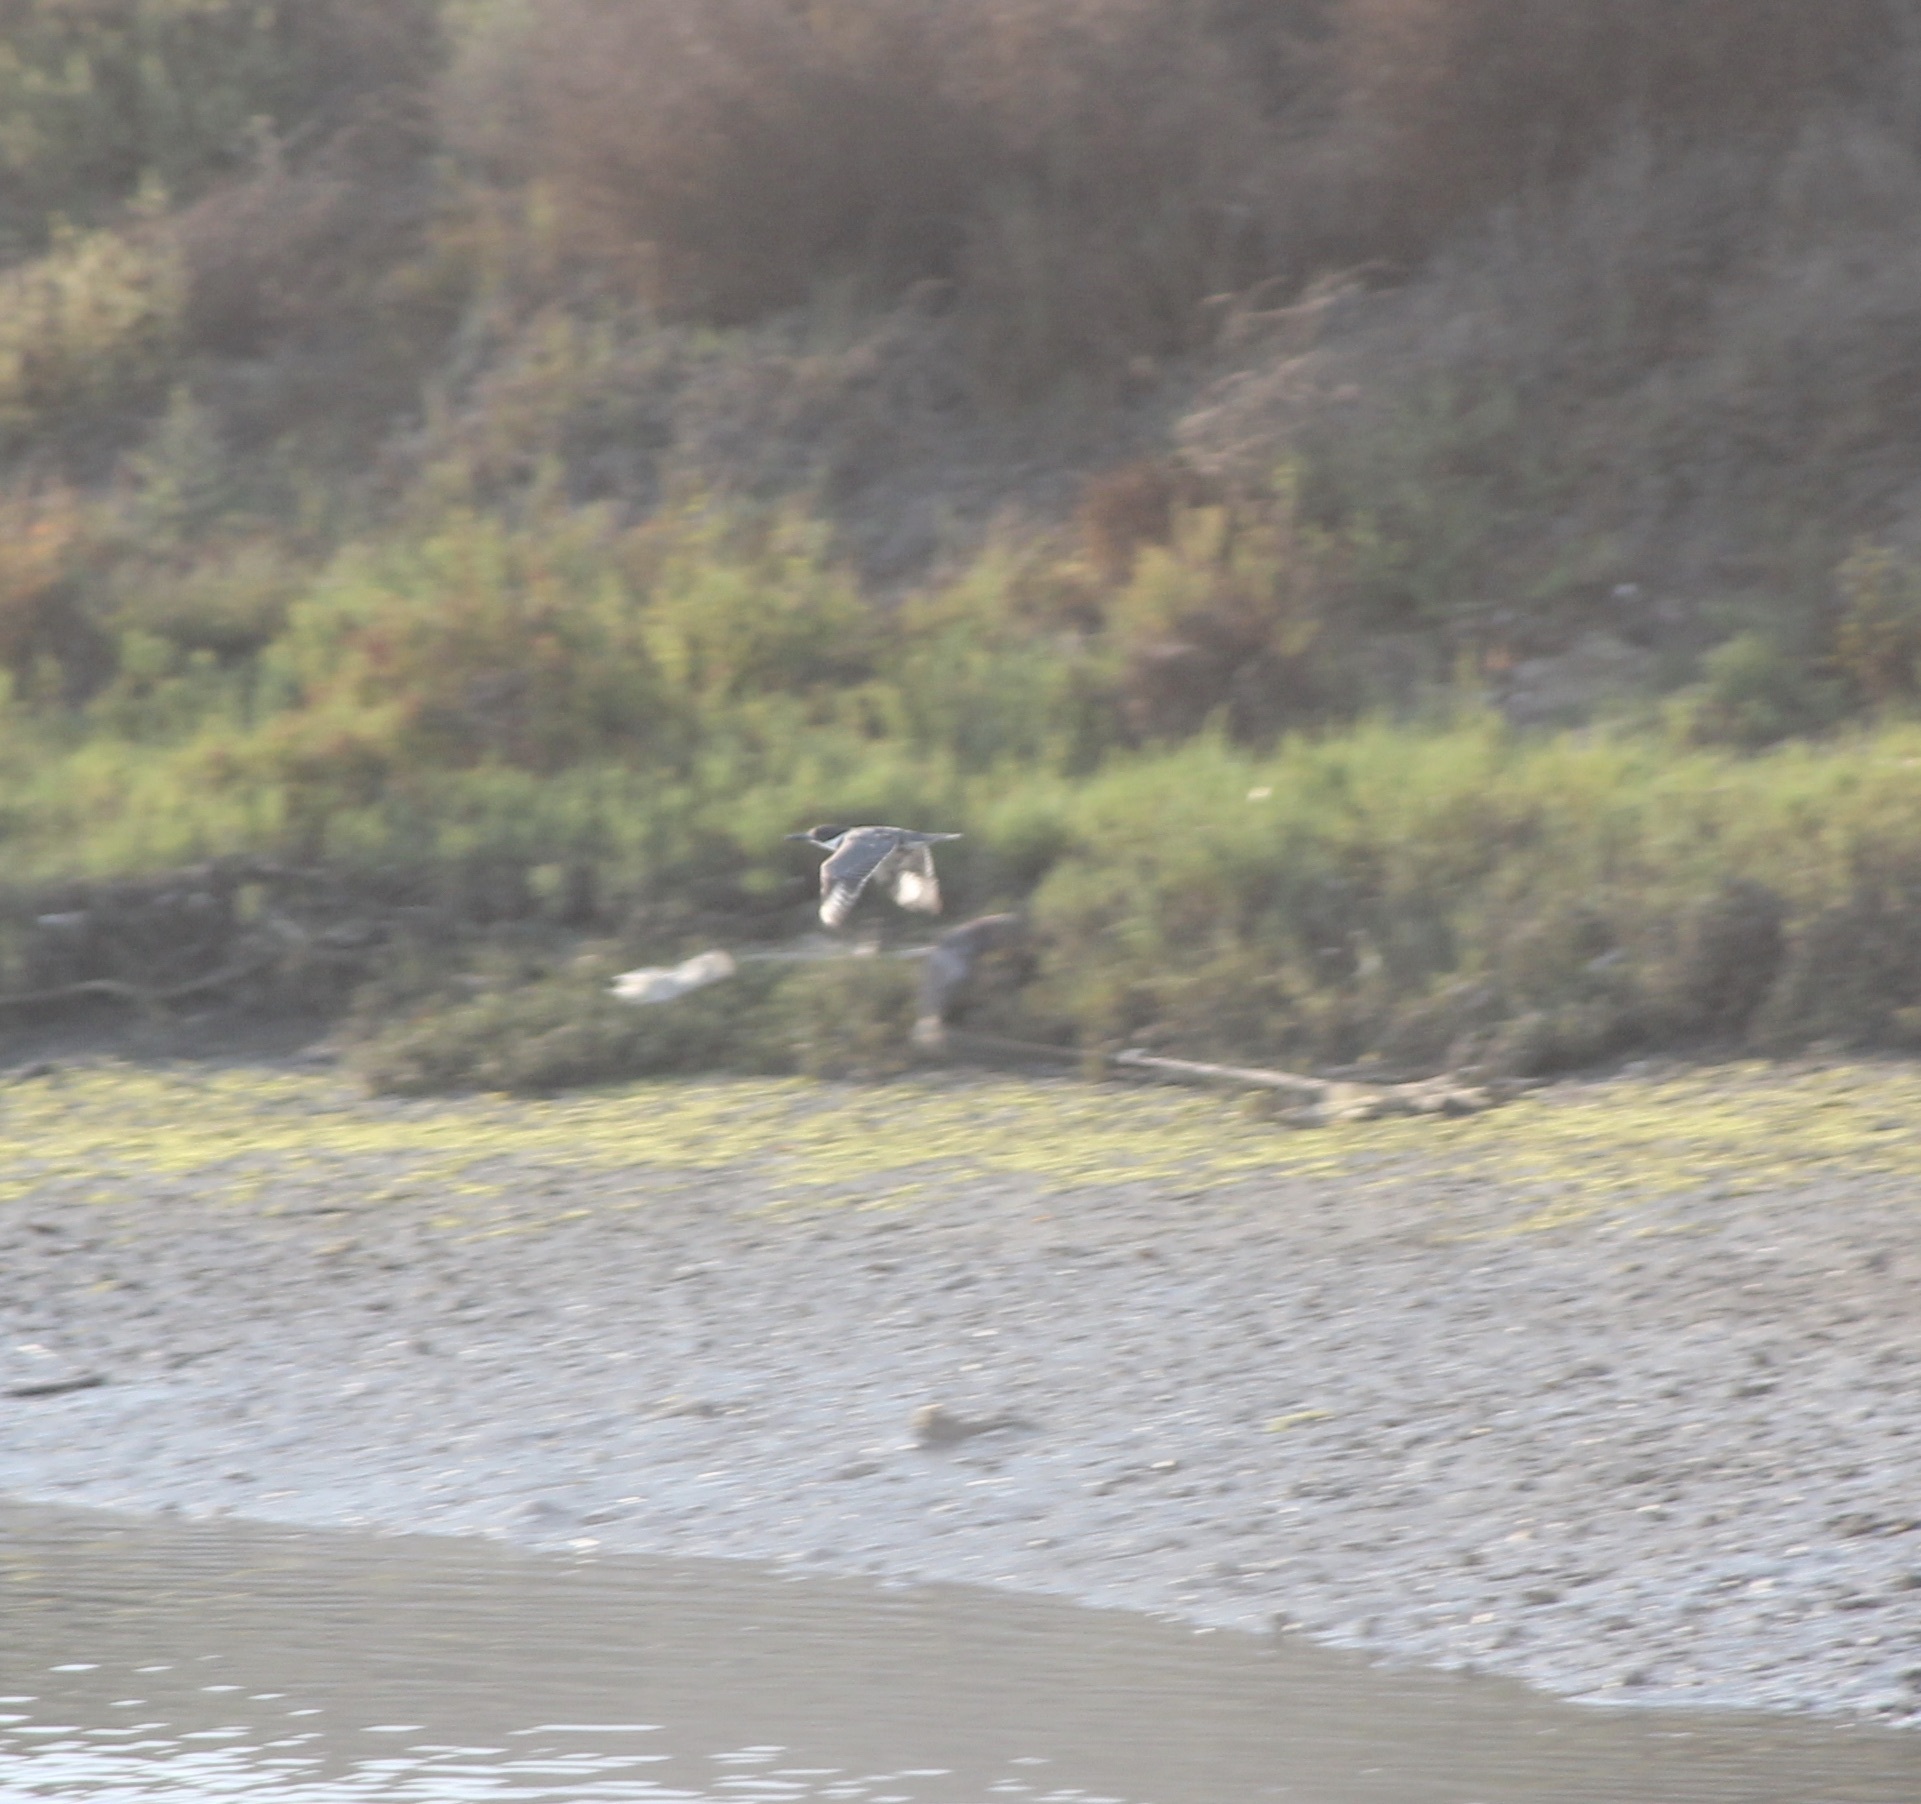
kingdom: Animalia
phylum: Chordata
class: Aves
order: Coraciiformes
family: Alcedinidae
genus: Megaceryle
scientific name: Megaceryle alcyon
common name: Belted kingfisher
